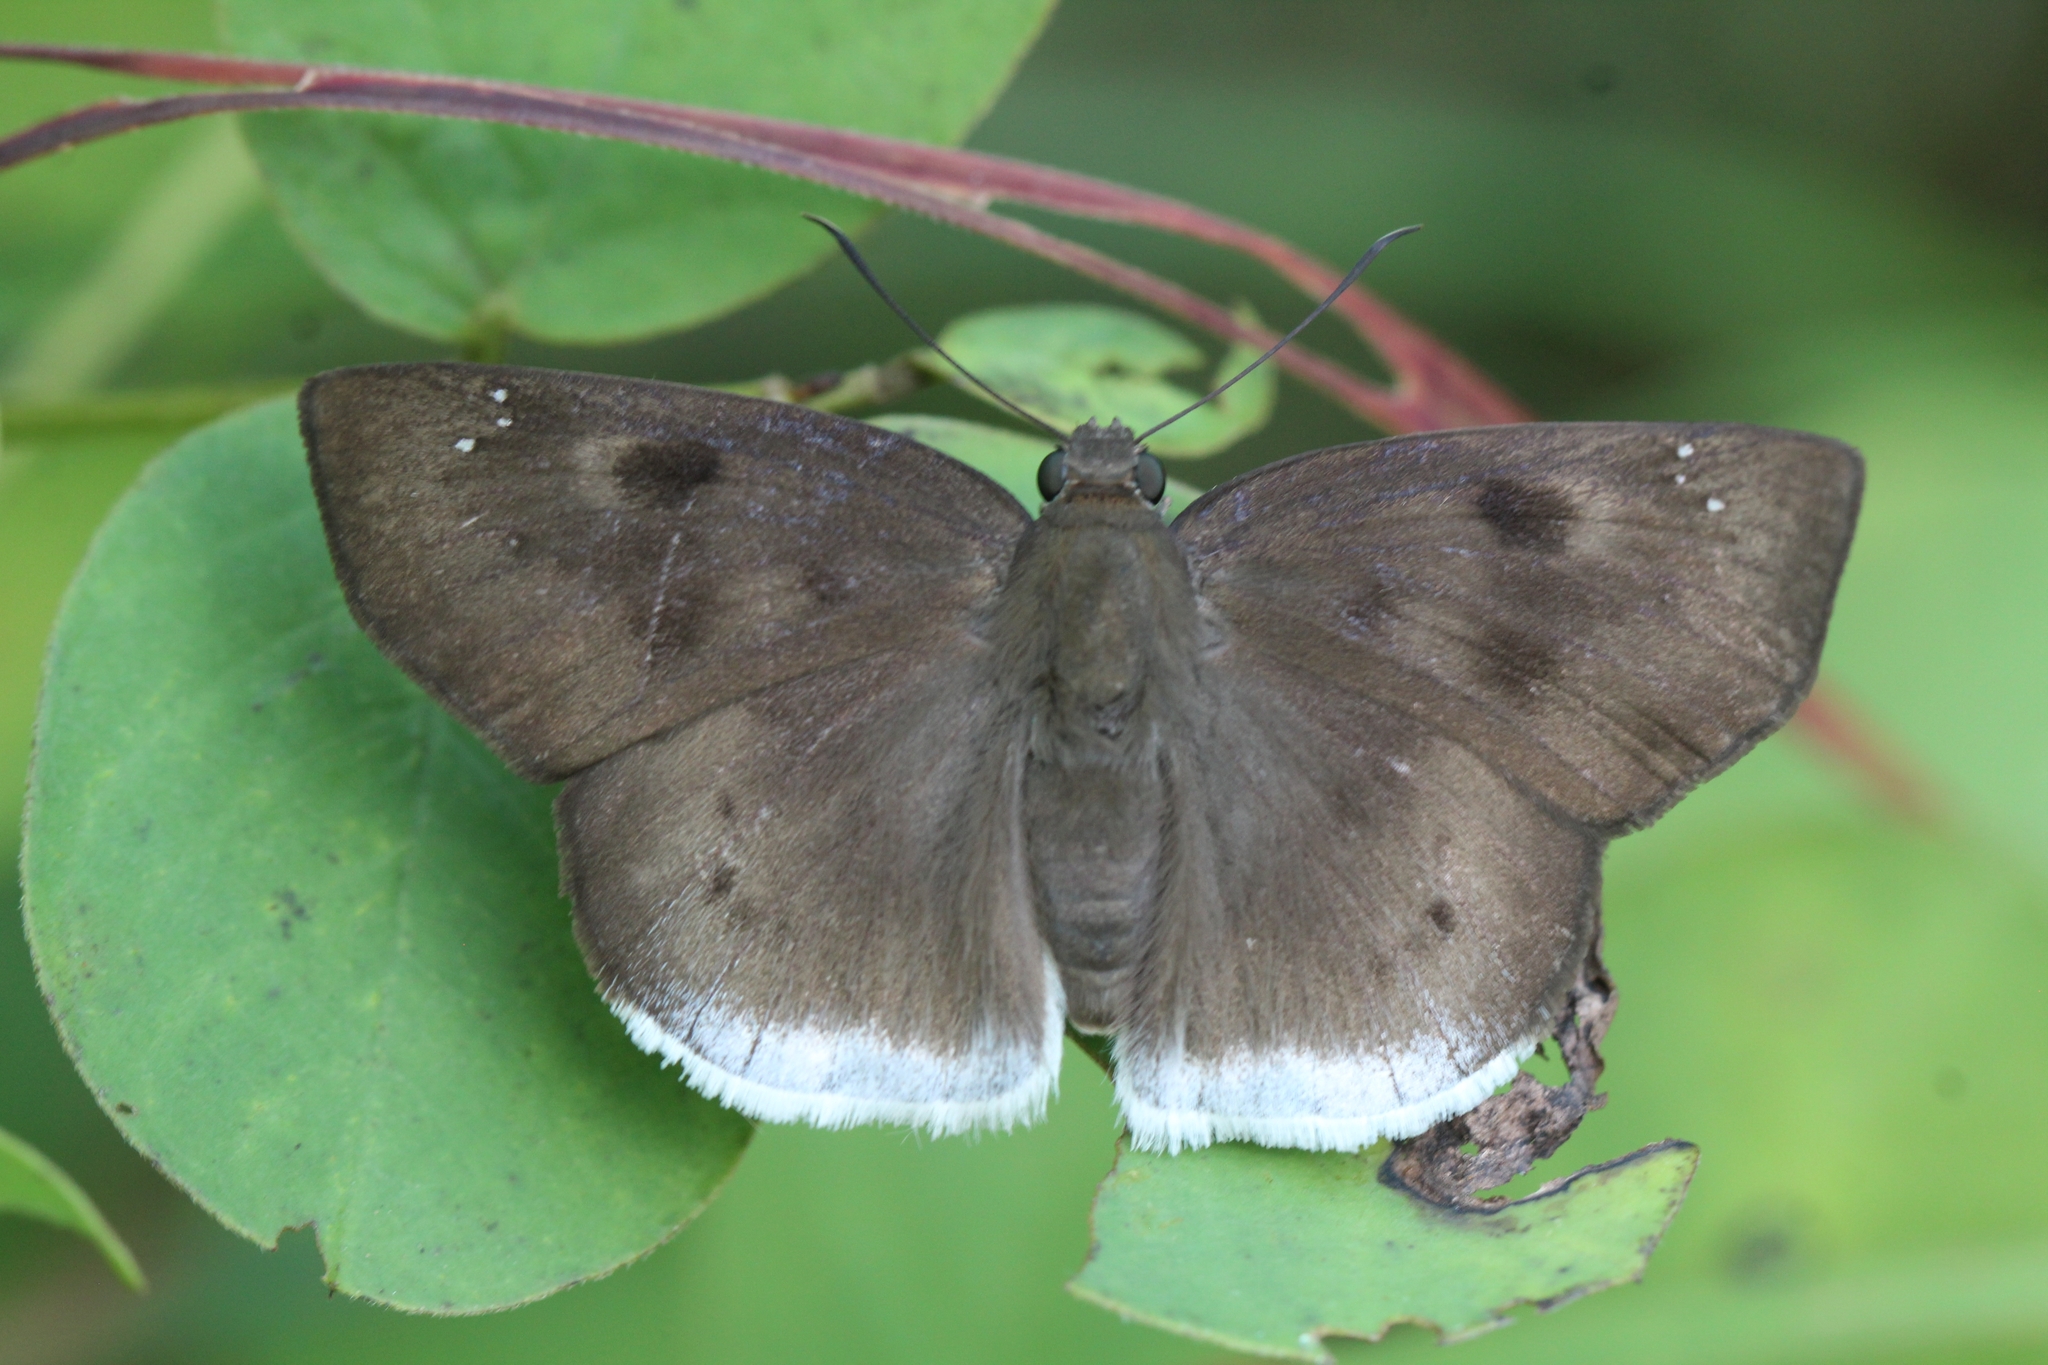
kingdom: Animalia
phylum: Arthropoda
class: Insecta
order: Lepidoptera
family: Hesperiidae
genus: Tagiades
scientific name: Tagiades gana
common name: Suffused snow flat
